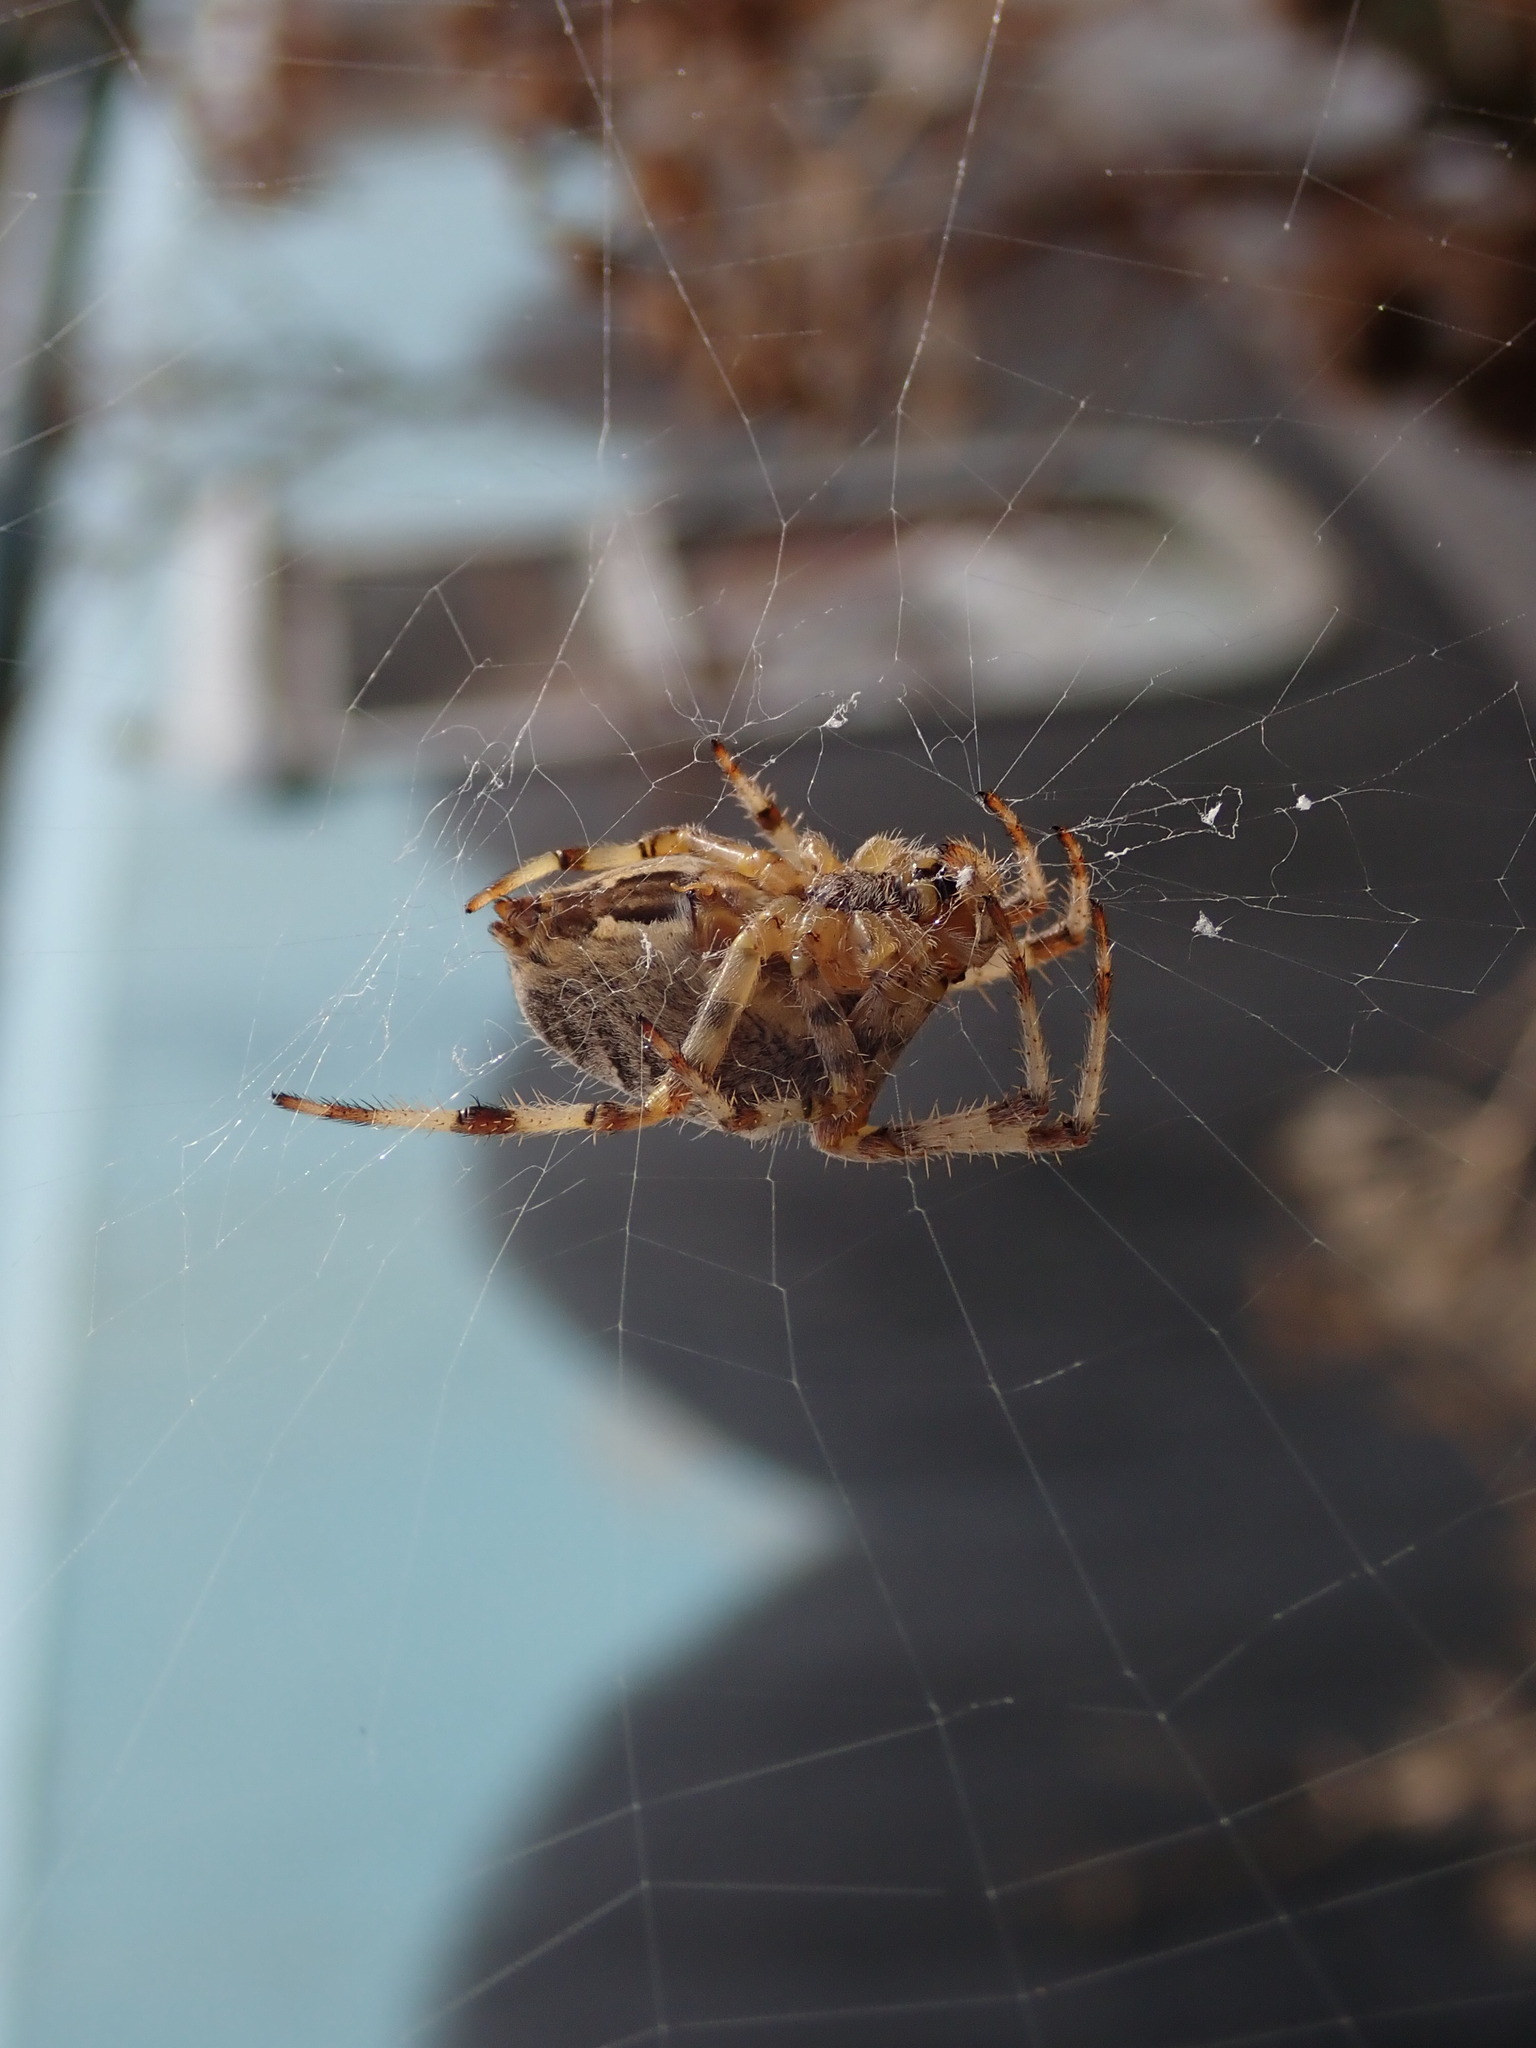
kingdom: Animalia
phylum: Arthropoda
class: Arachnida
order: Araneae
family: Araneidae
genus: Araneus
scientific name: Araneus diadematus
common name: Cross orbweaver
